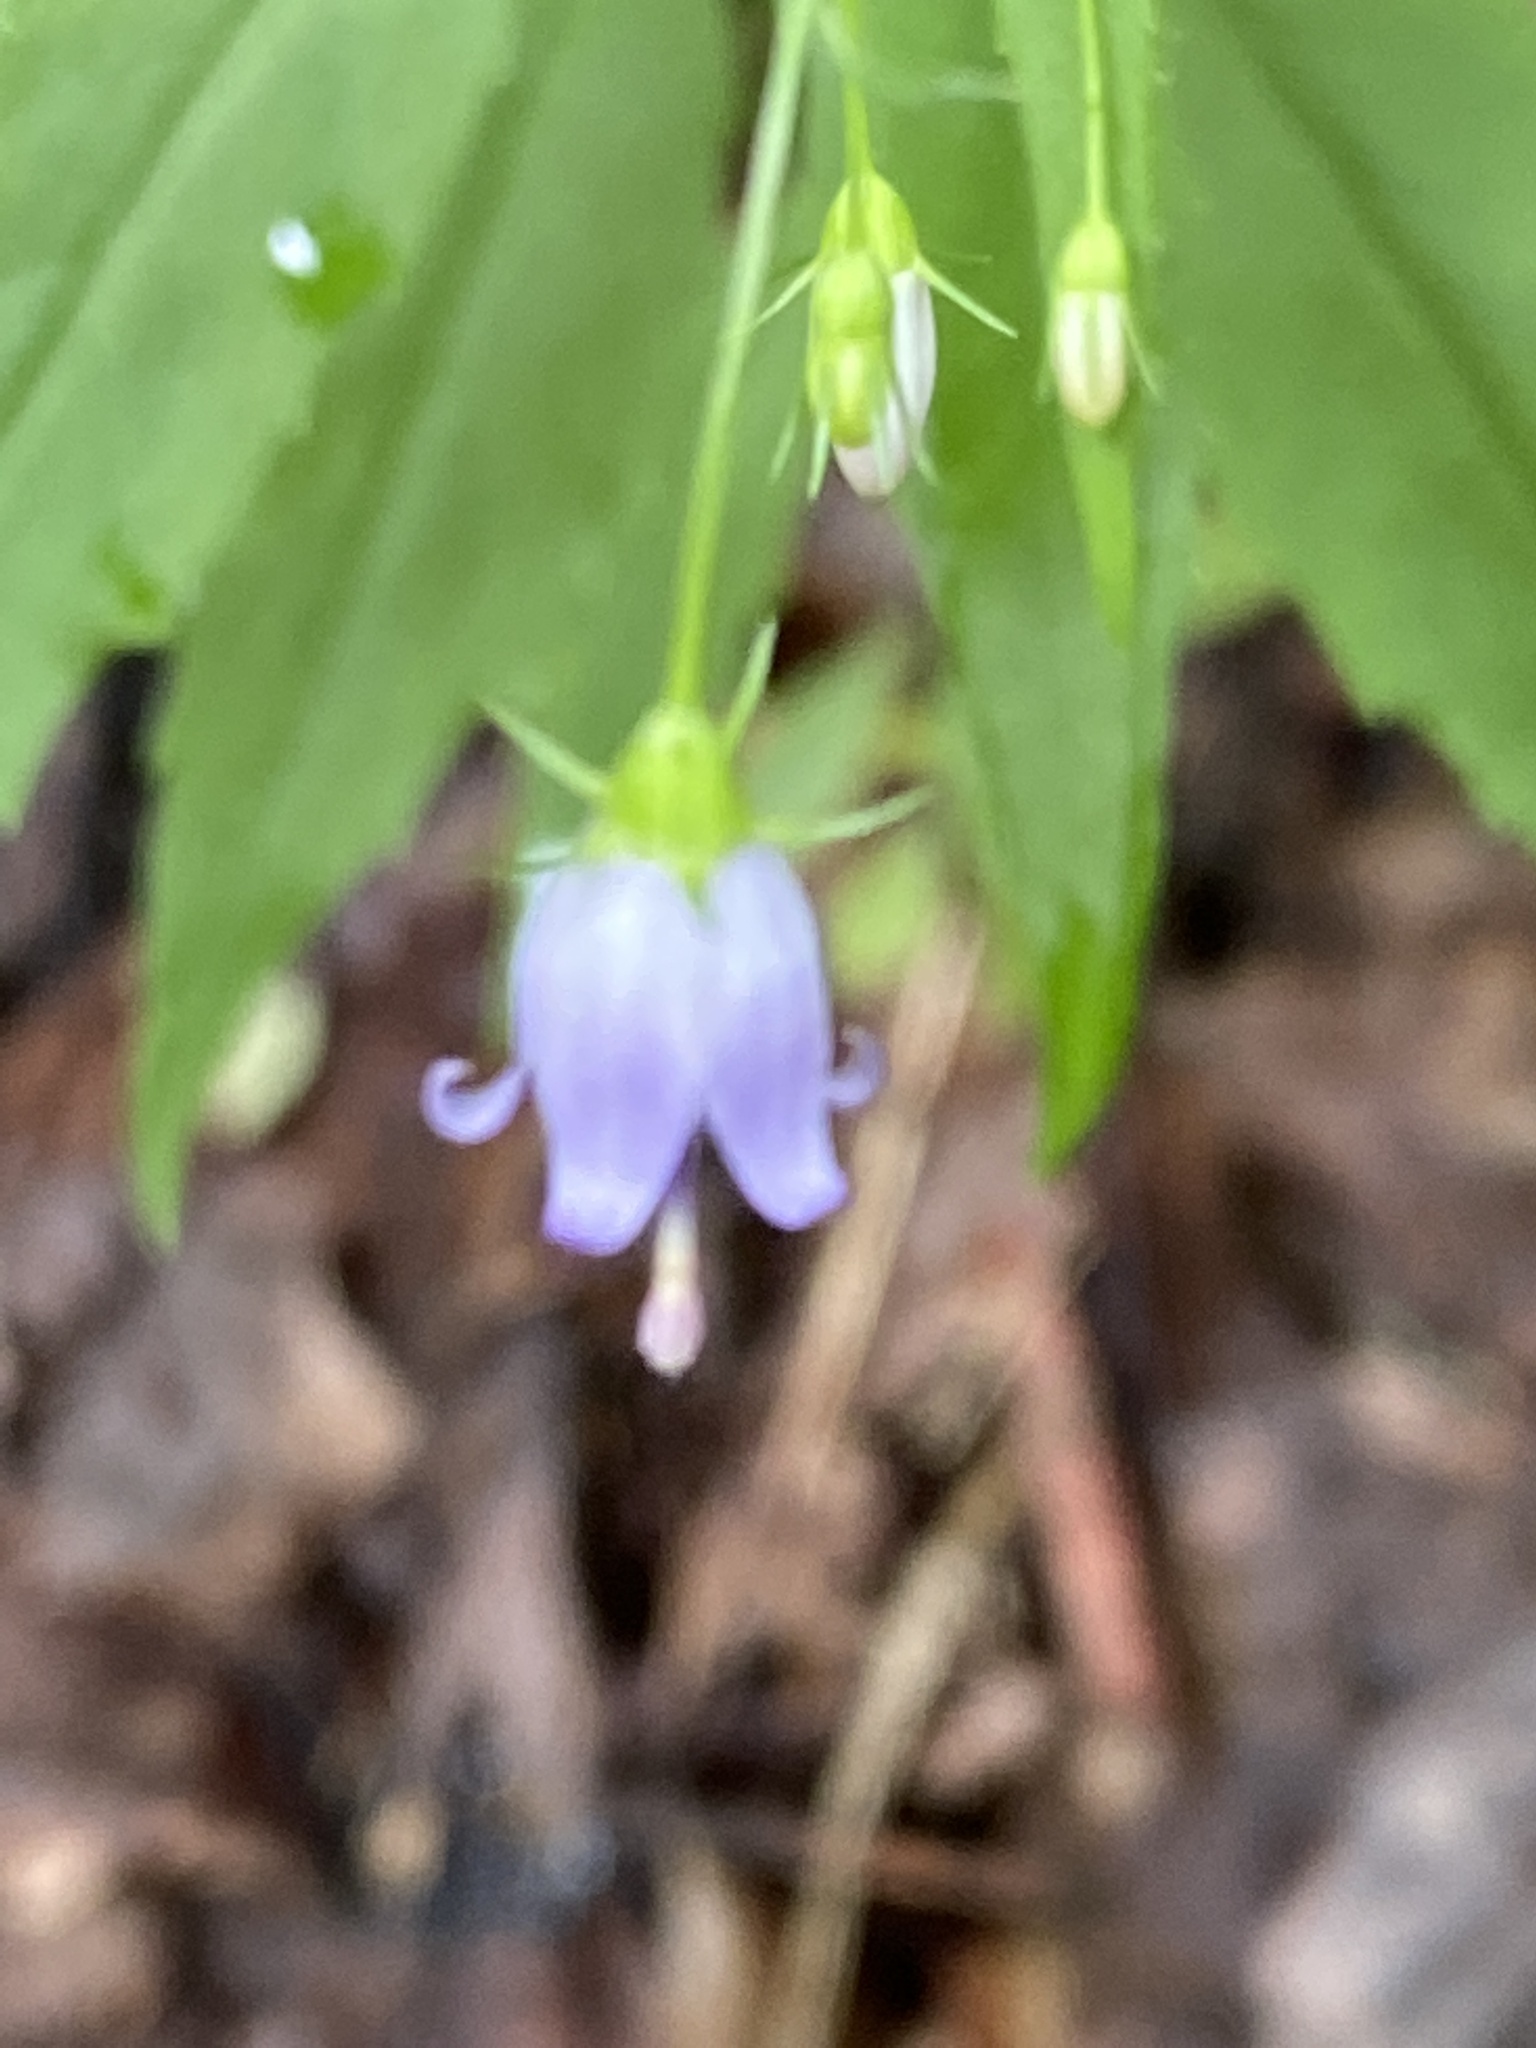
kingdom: Plantae
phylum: Tracheophyta
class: Magnoliopsida
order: Asterales
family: Campanulaceae
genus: Campanula
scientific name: Campanula divaricata
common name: Appalachian bellflower
